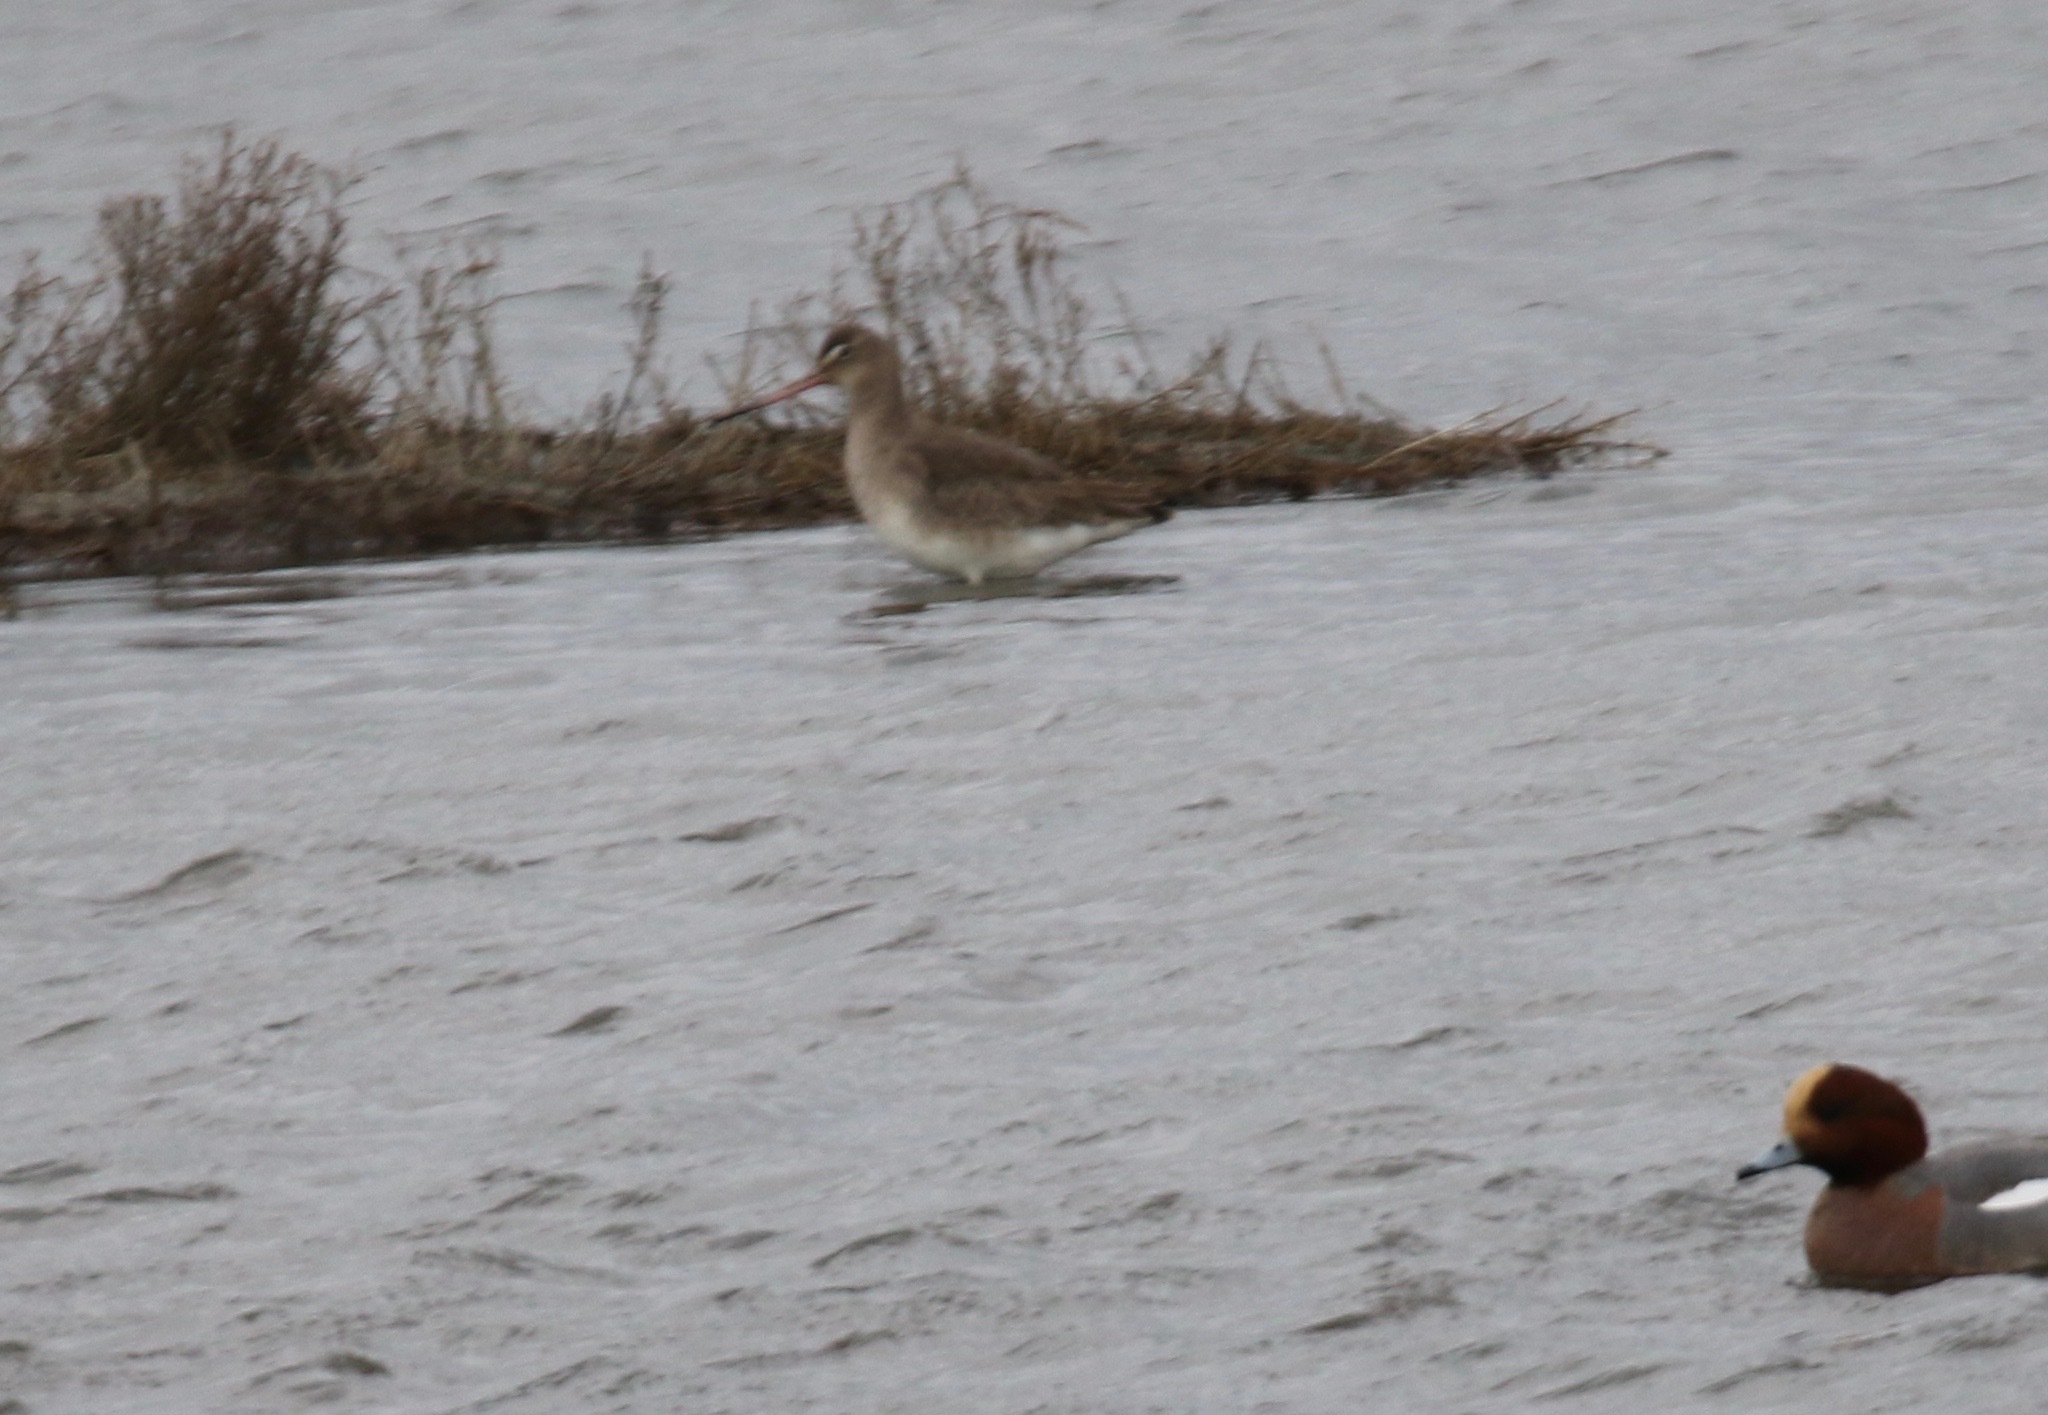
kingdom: Animalia
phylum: Chordata
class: Aves
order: Charadriiformes
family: Scolopacidae
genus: Limosa
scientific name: Limosa limosa
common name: Black-tailed godwit
